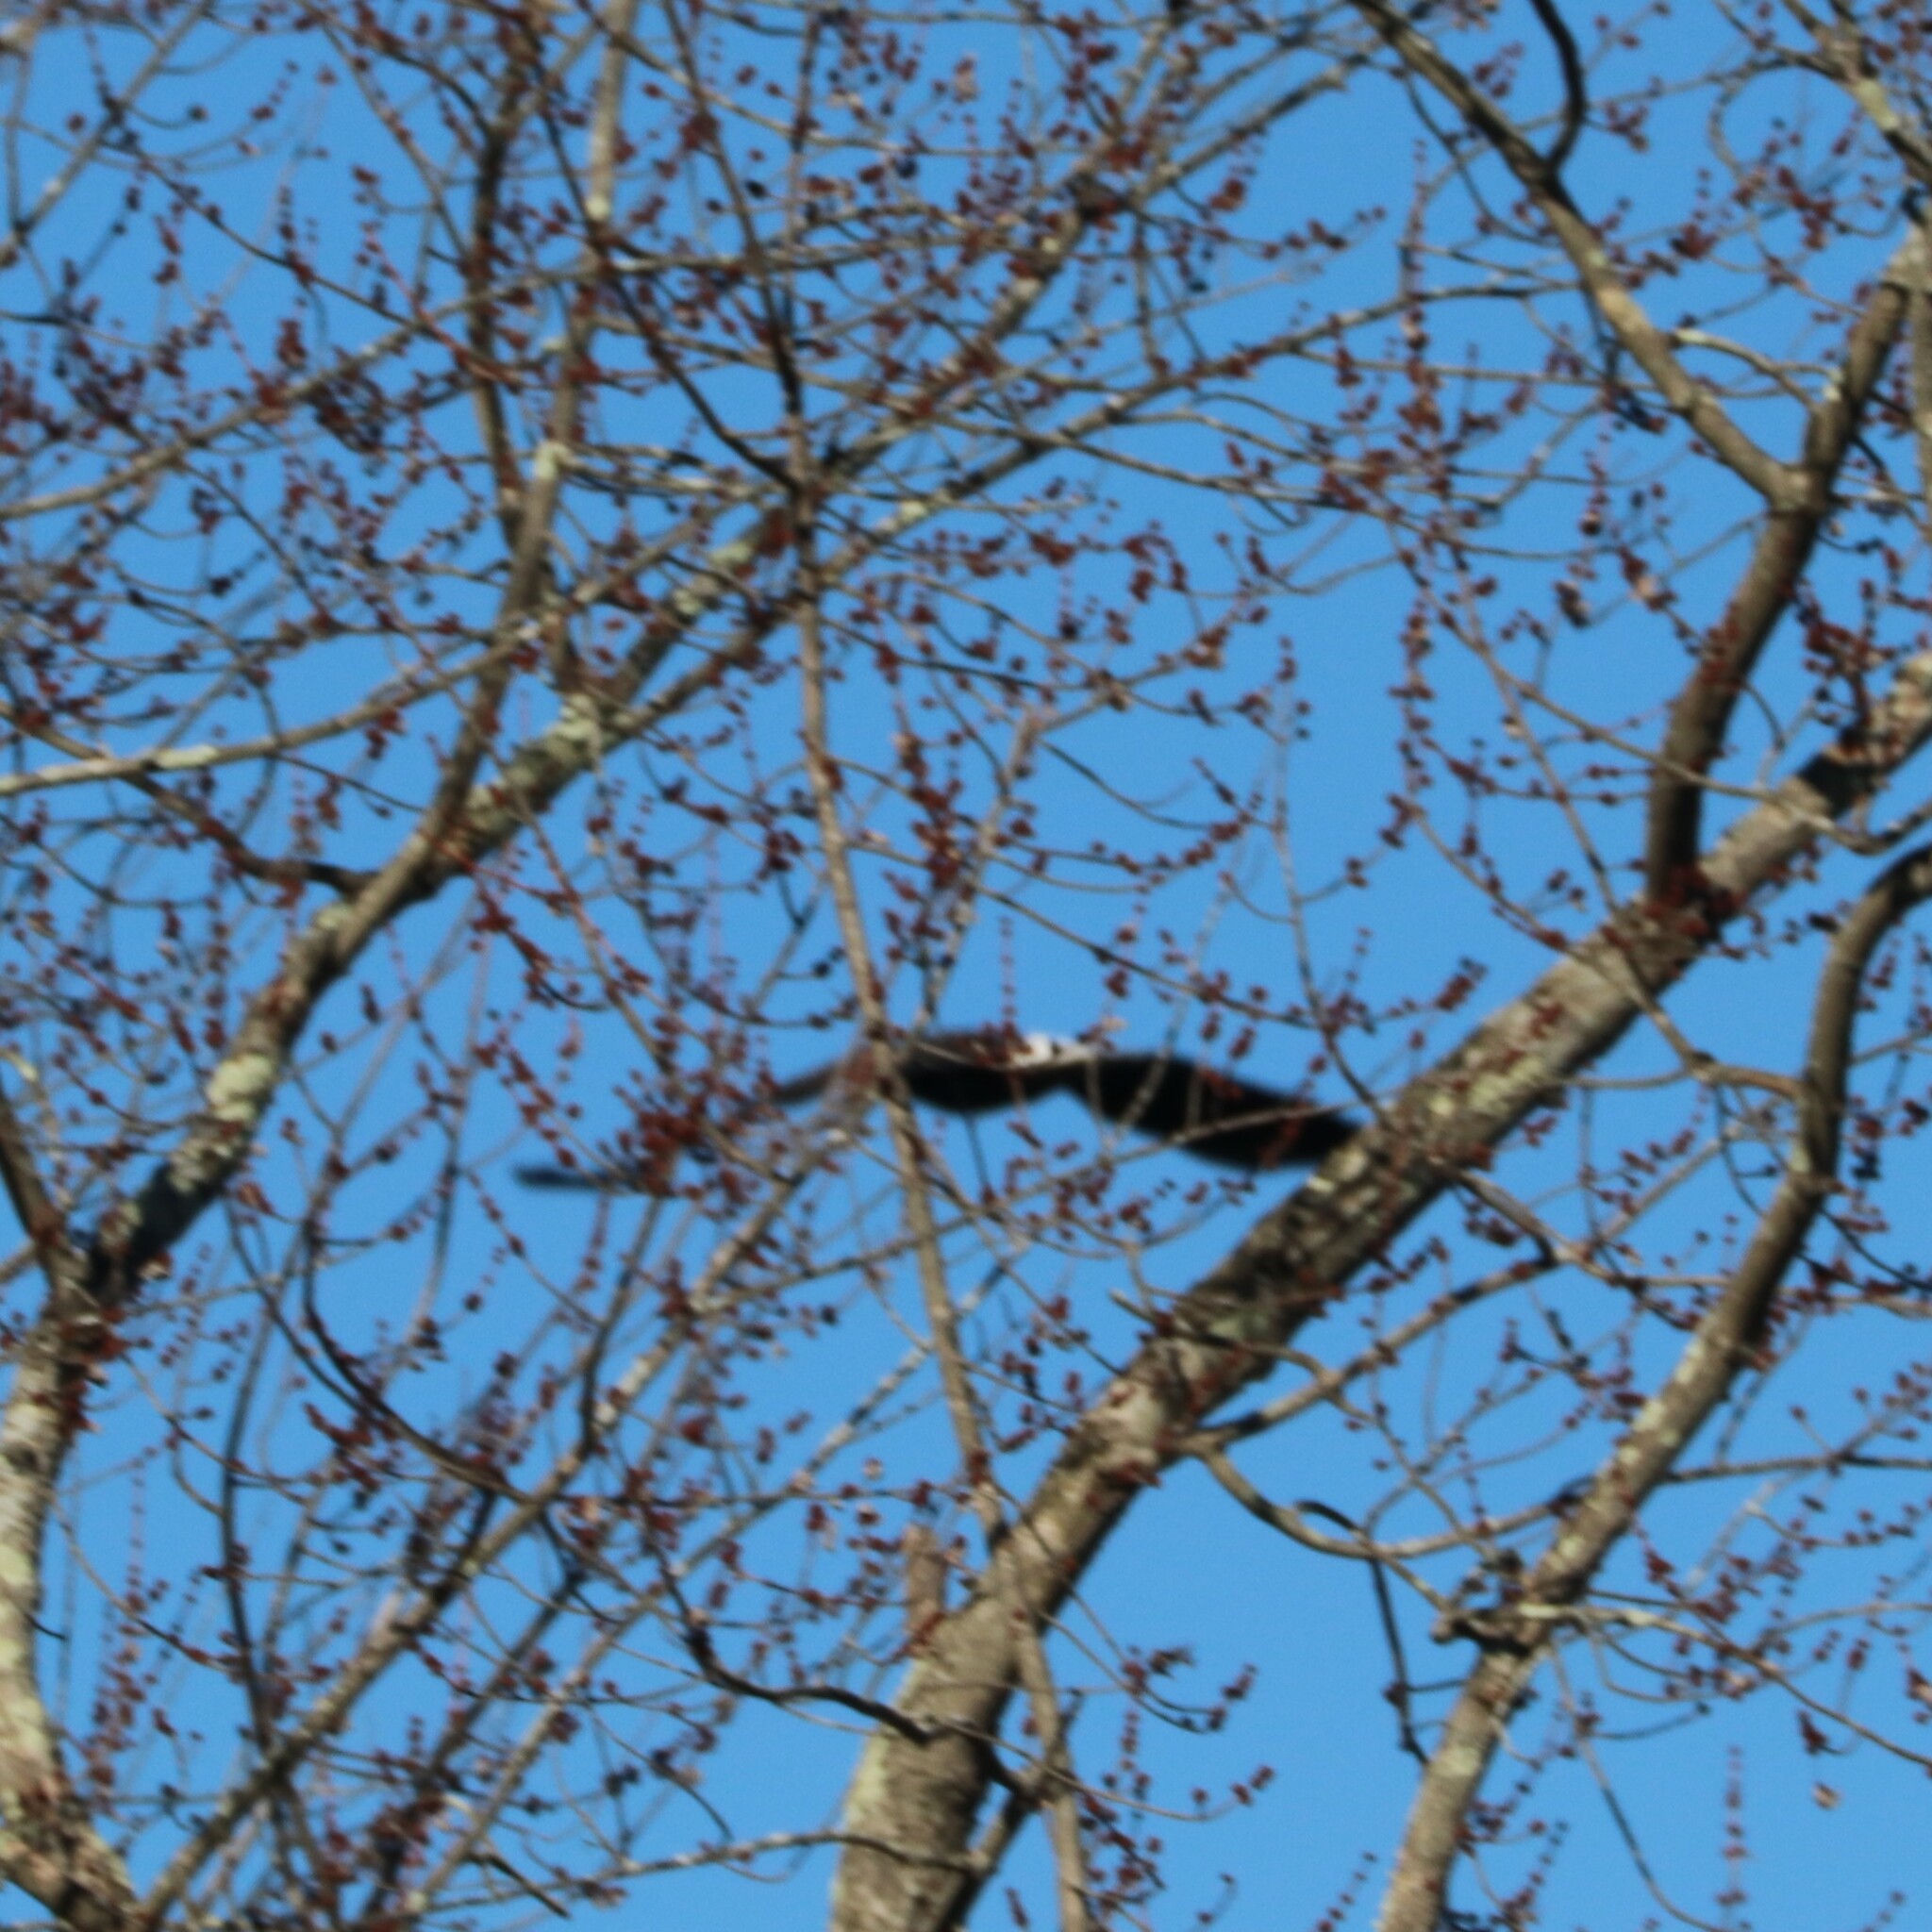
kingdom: Animalia
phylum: Chordata
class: Aves
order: Accipitriformes
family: Accipitridae
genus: Haliaeetus
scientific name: Haliaeetus leucocephalus
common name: Bald eagle
